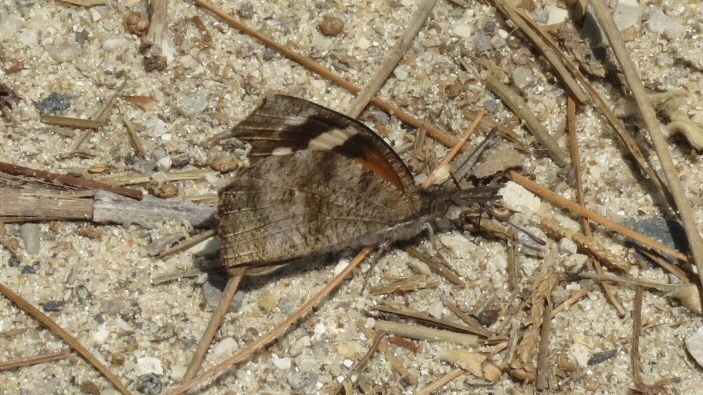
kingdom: Animalia
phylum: Arthropoda
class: Insecta
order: Lepidoptera
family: Nymphalidae
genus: Libytheana
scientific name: Libytheana carinenta
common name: American snout
